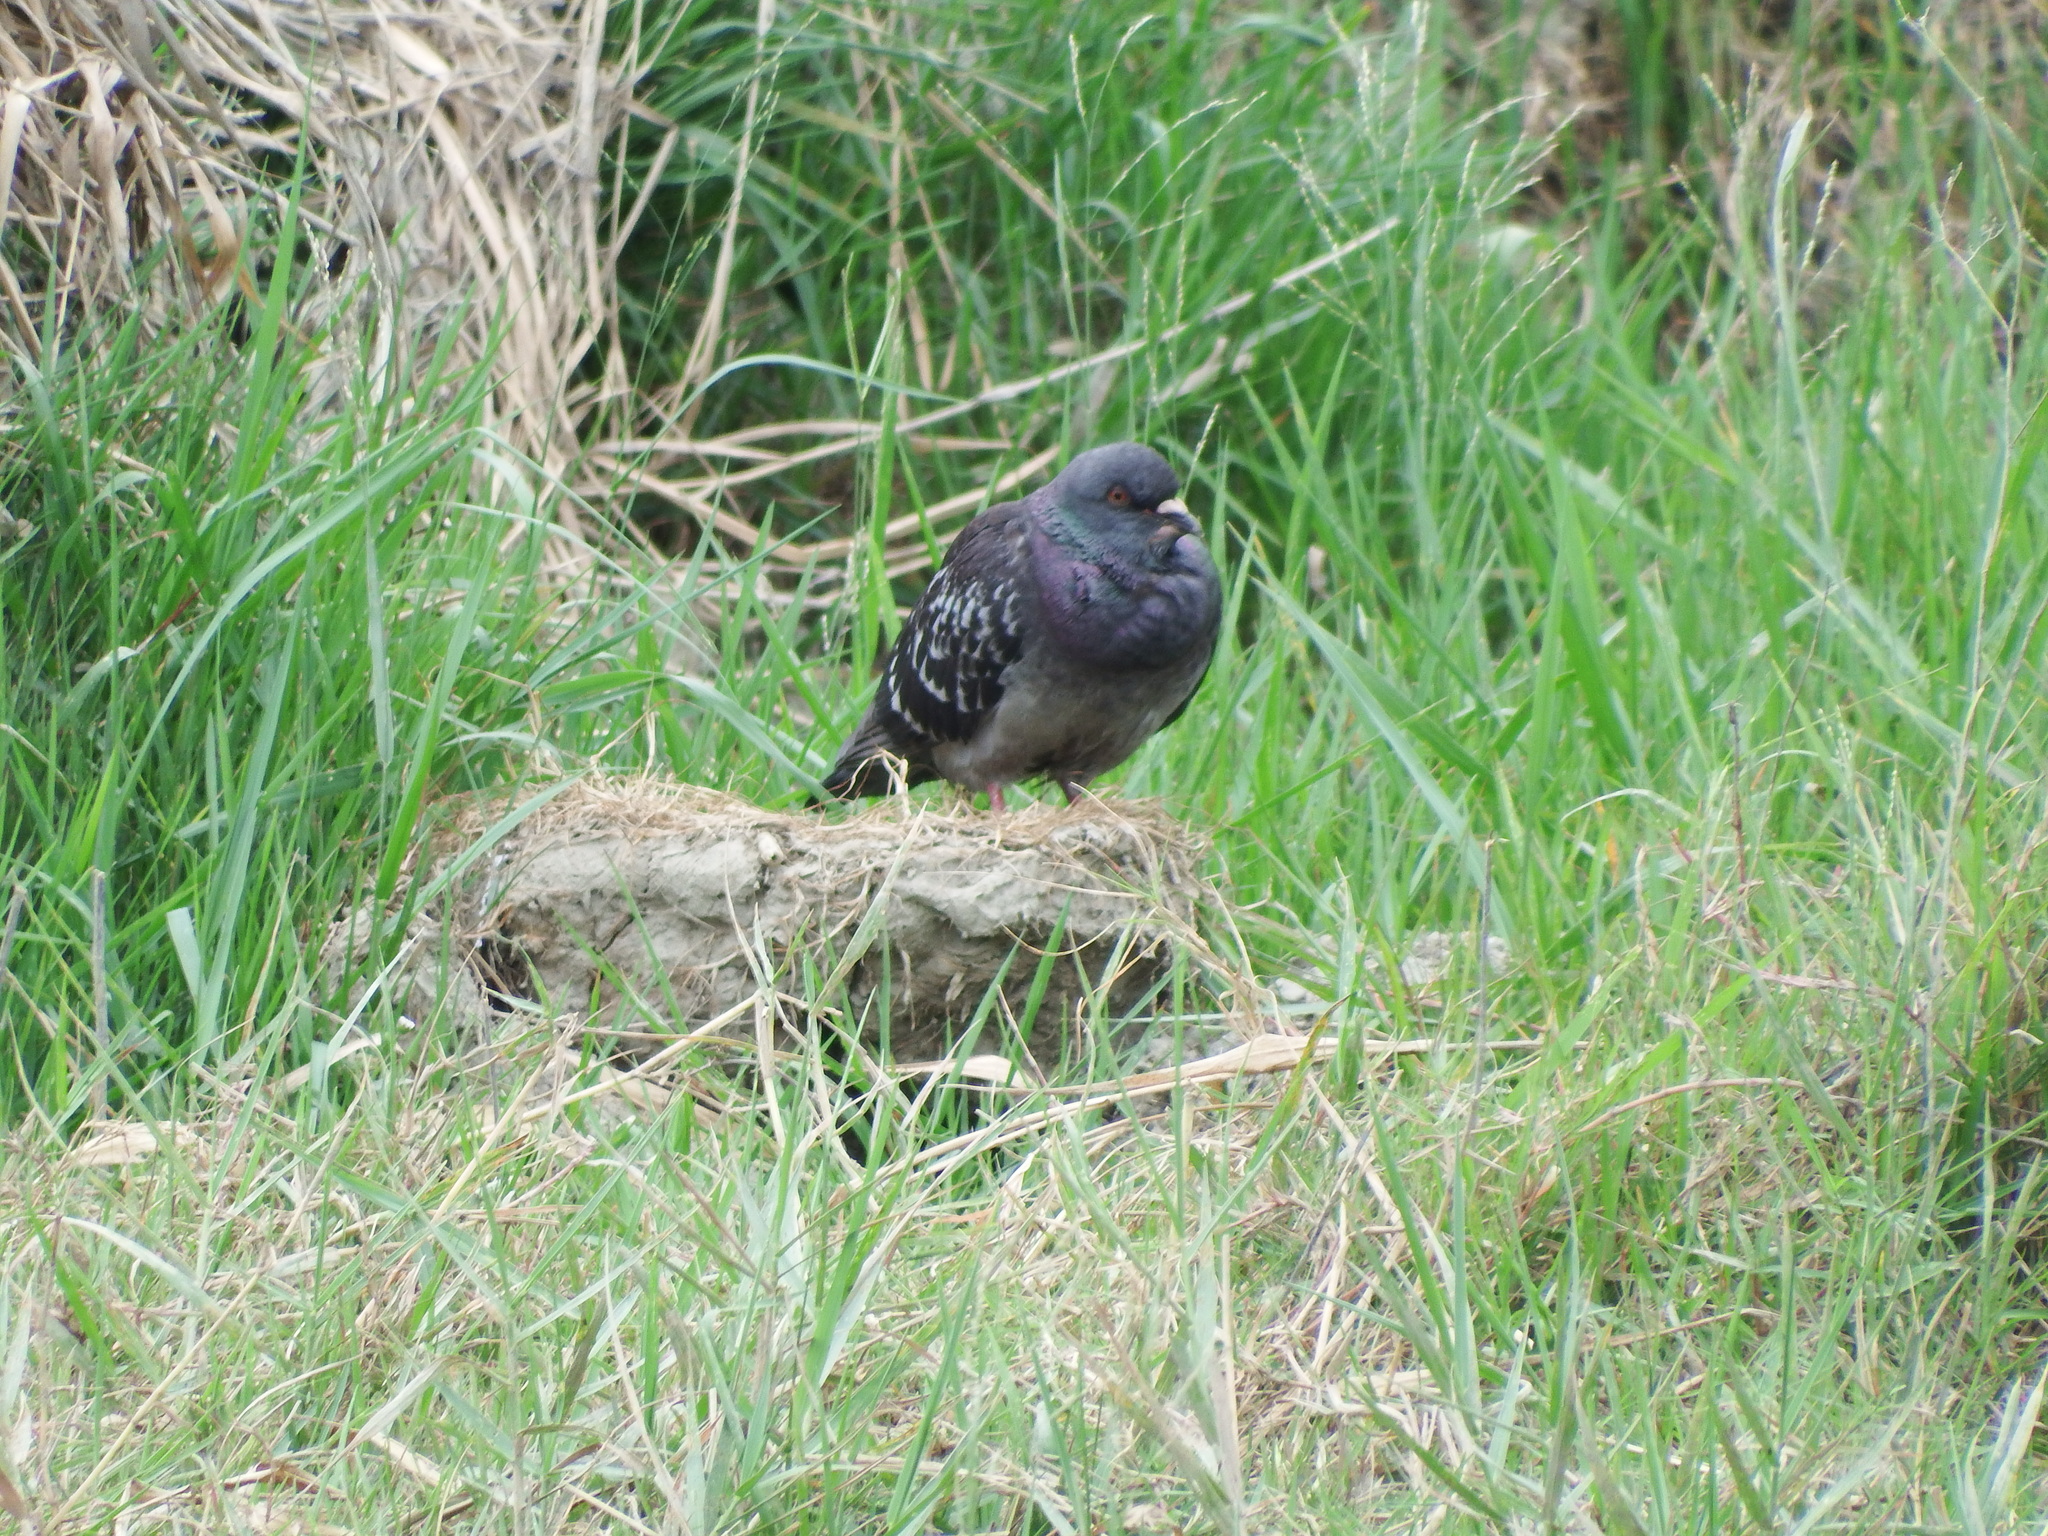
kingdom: Animalia
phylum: Chordata
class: Aves
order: Columbiformes
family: Columbidae
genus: Columba
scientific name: Columba livia
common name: Rock pigeon
